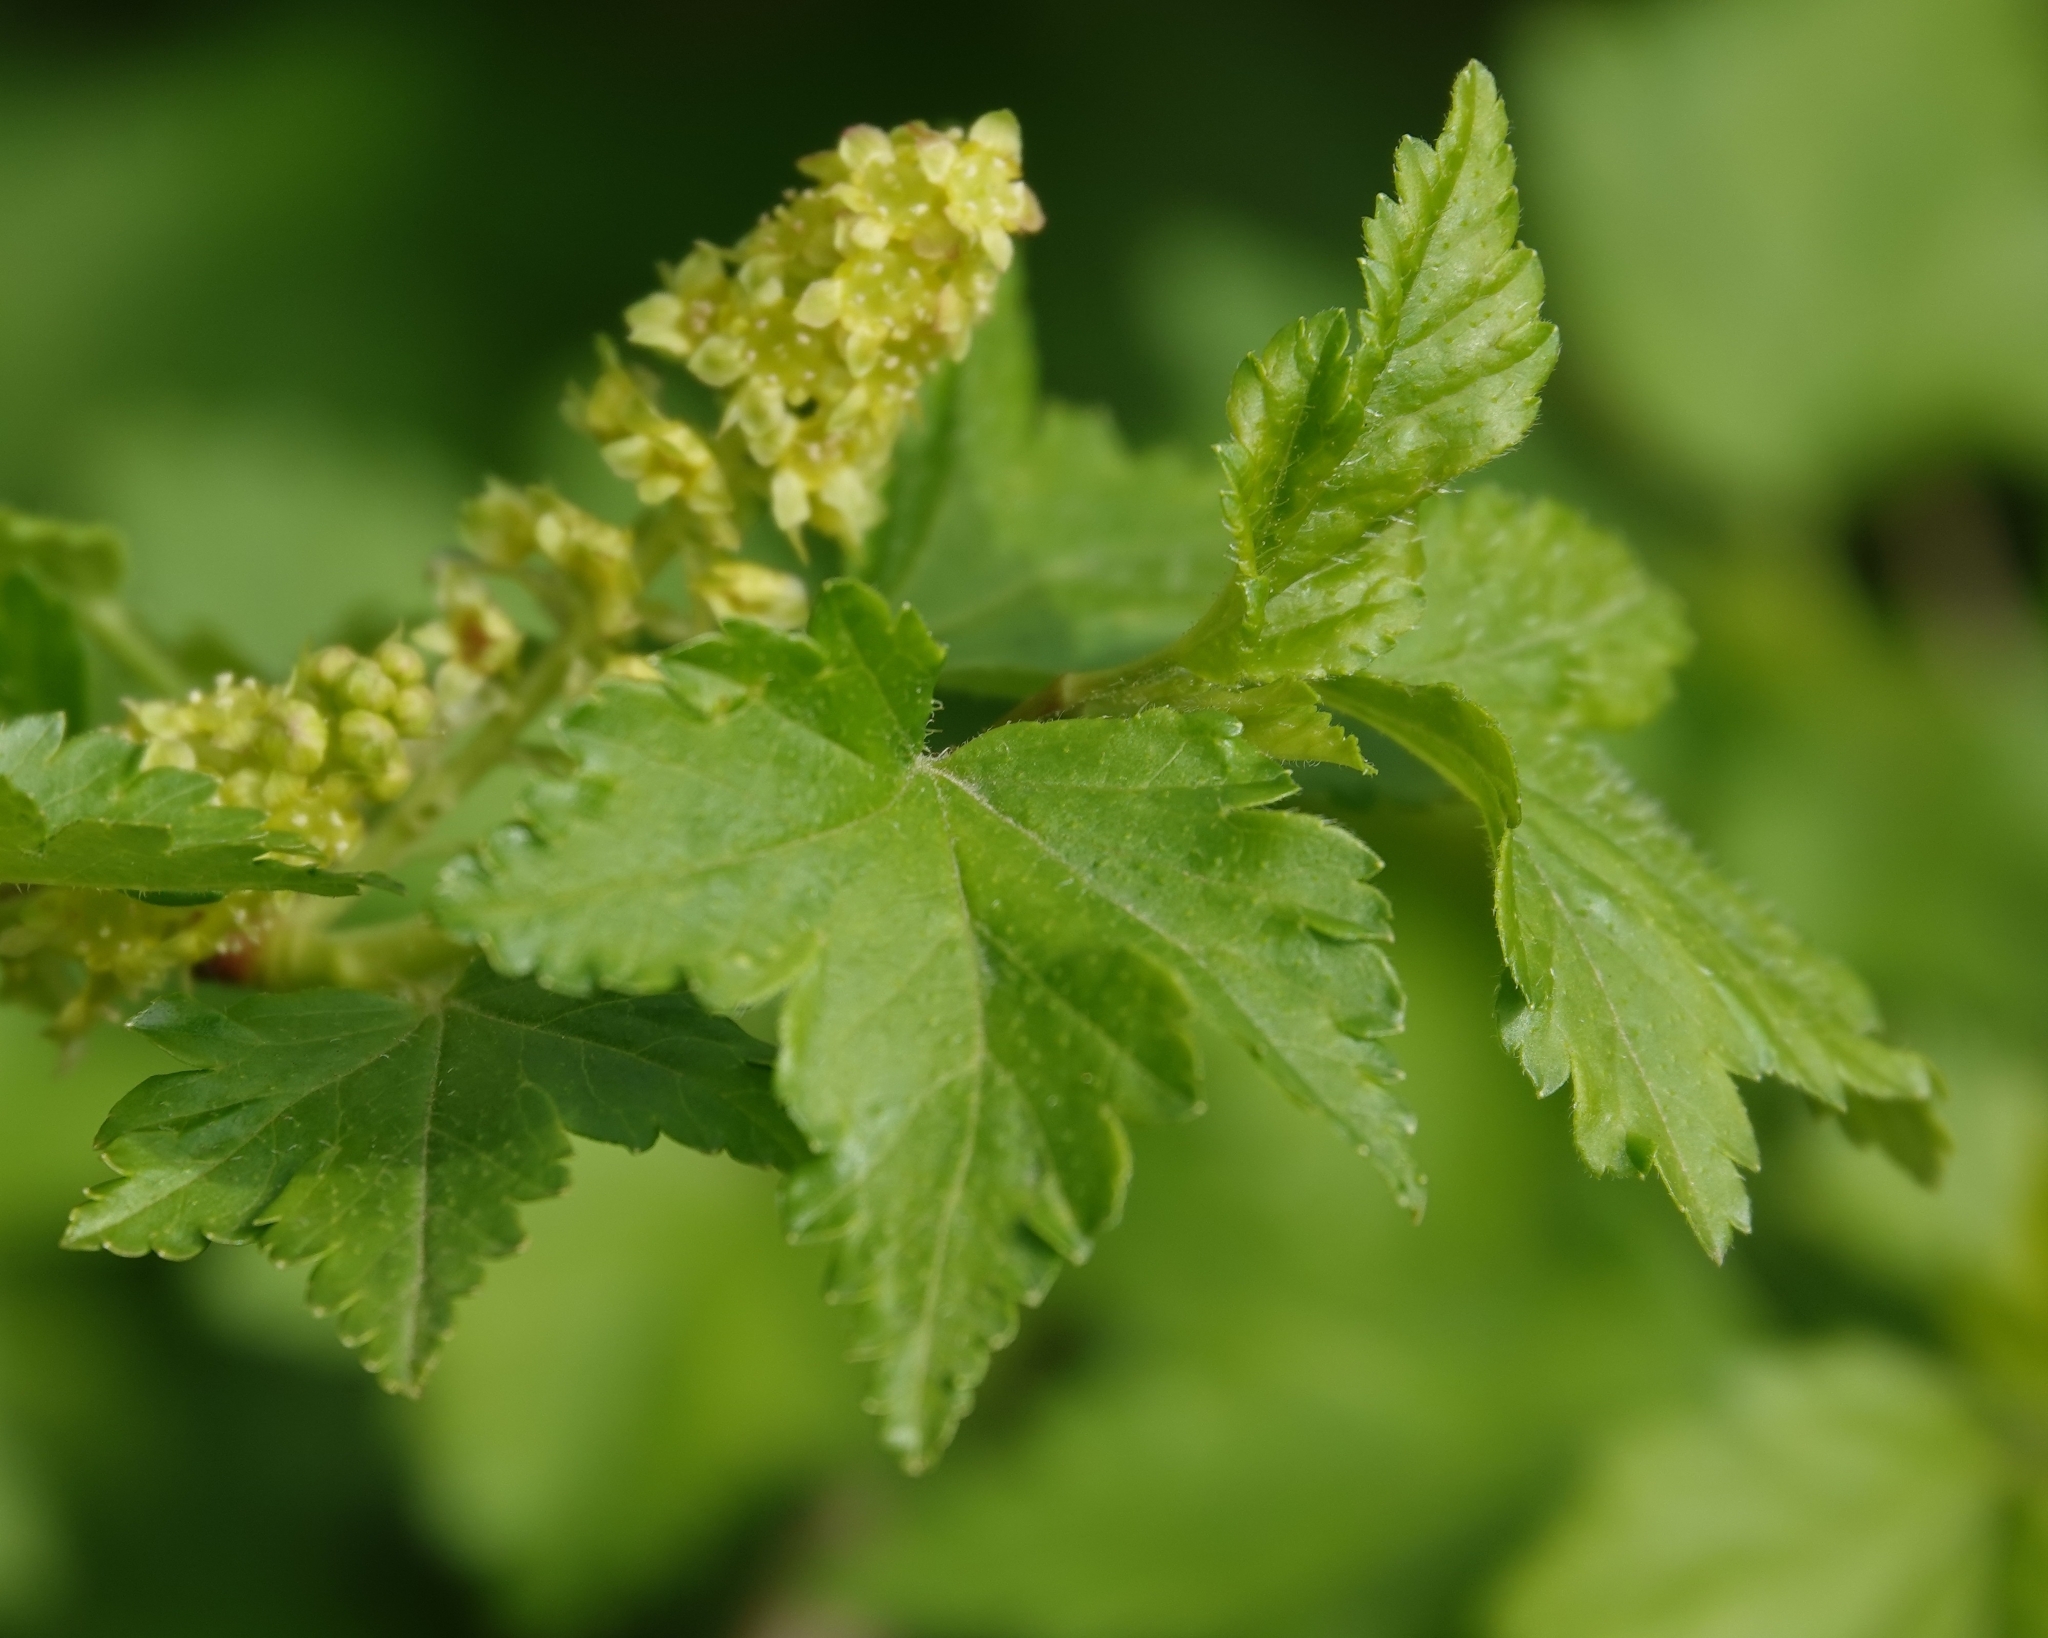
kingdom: Plantae
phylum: Tracheophyta
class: Magnoliopsida
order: Saxifragales
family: Grossulariaceae
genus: Ribes
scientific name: Ribes alpinum
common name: Alpine currant
